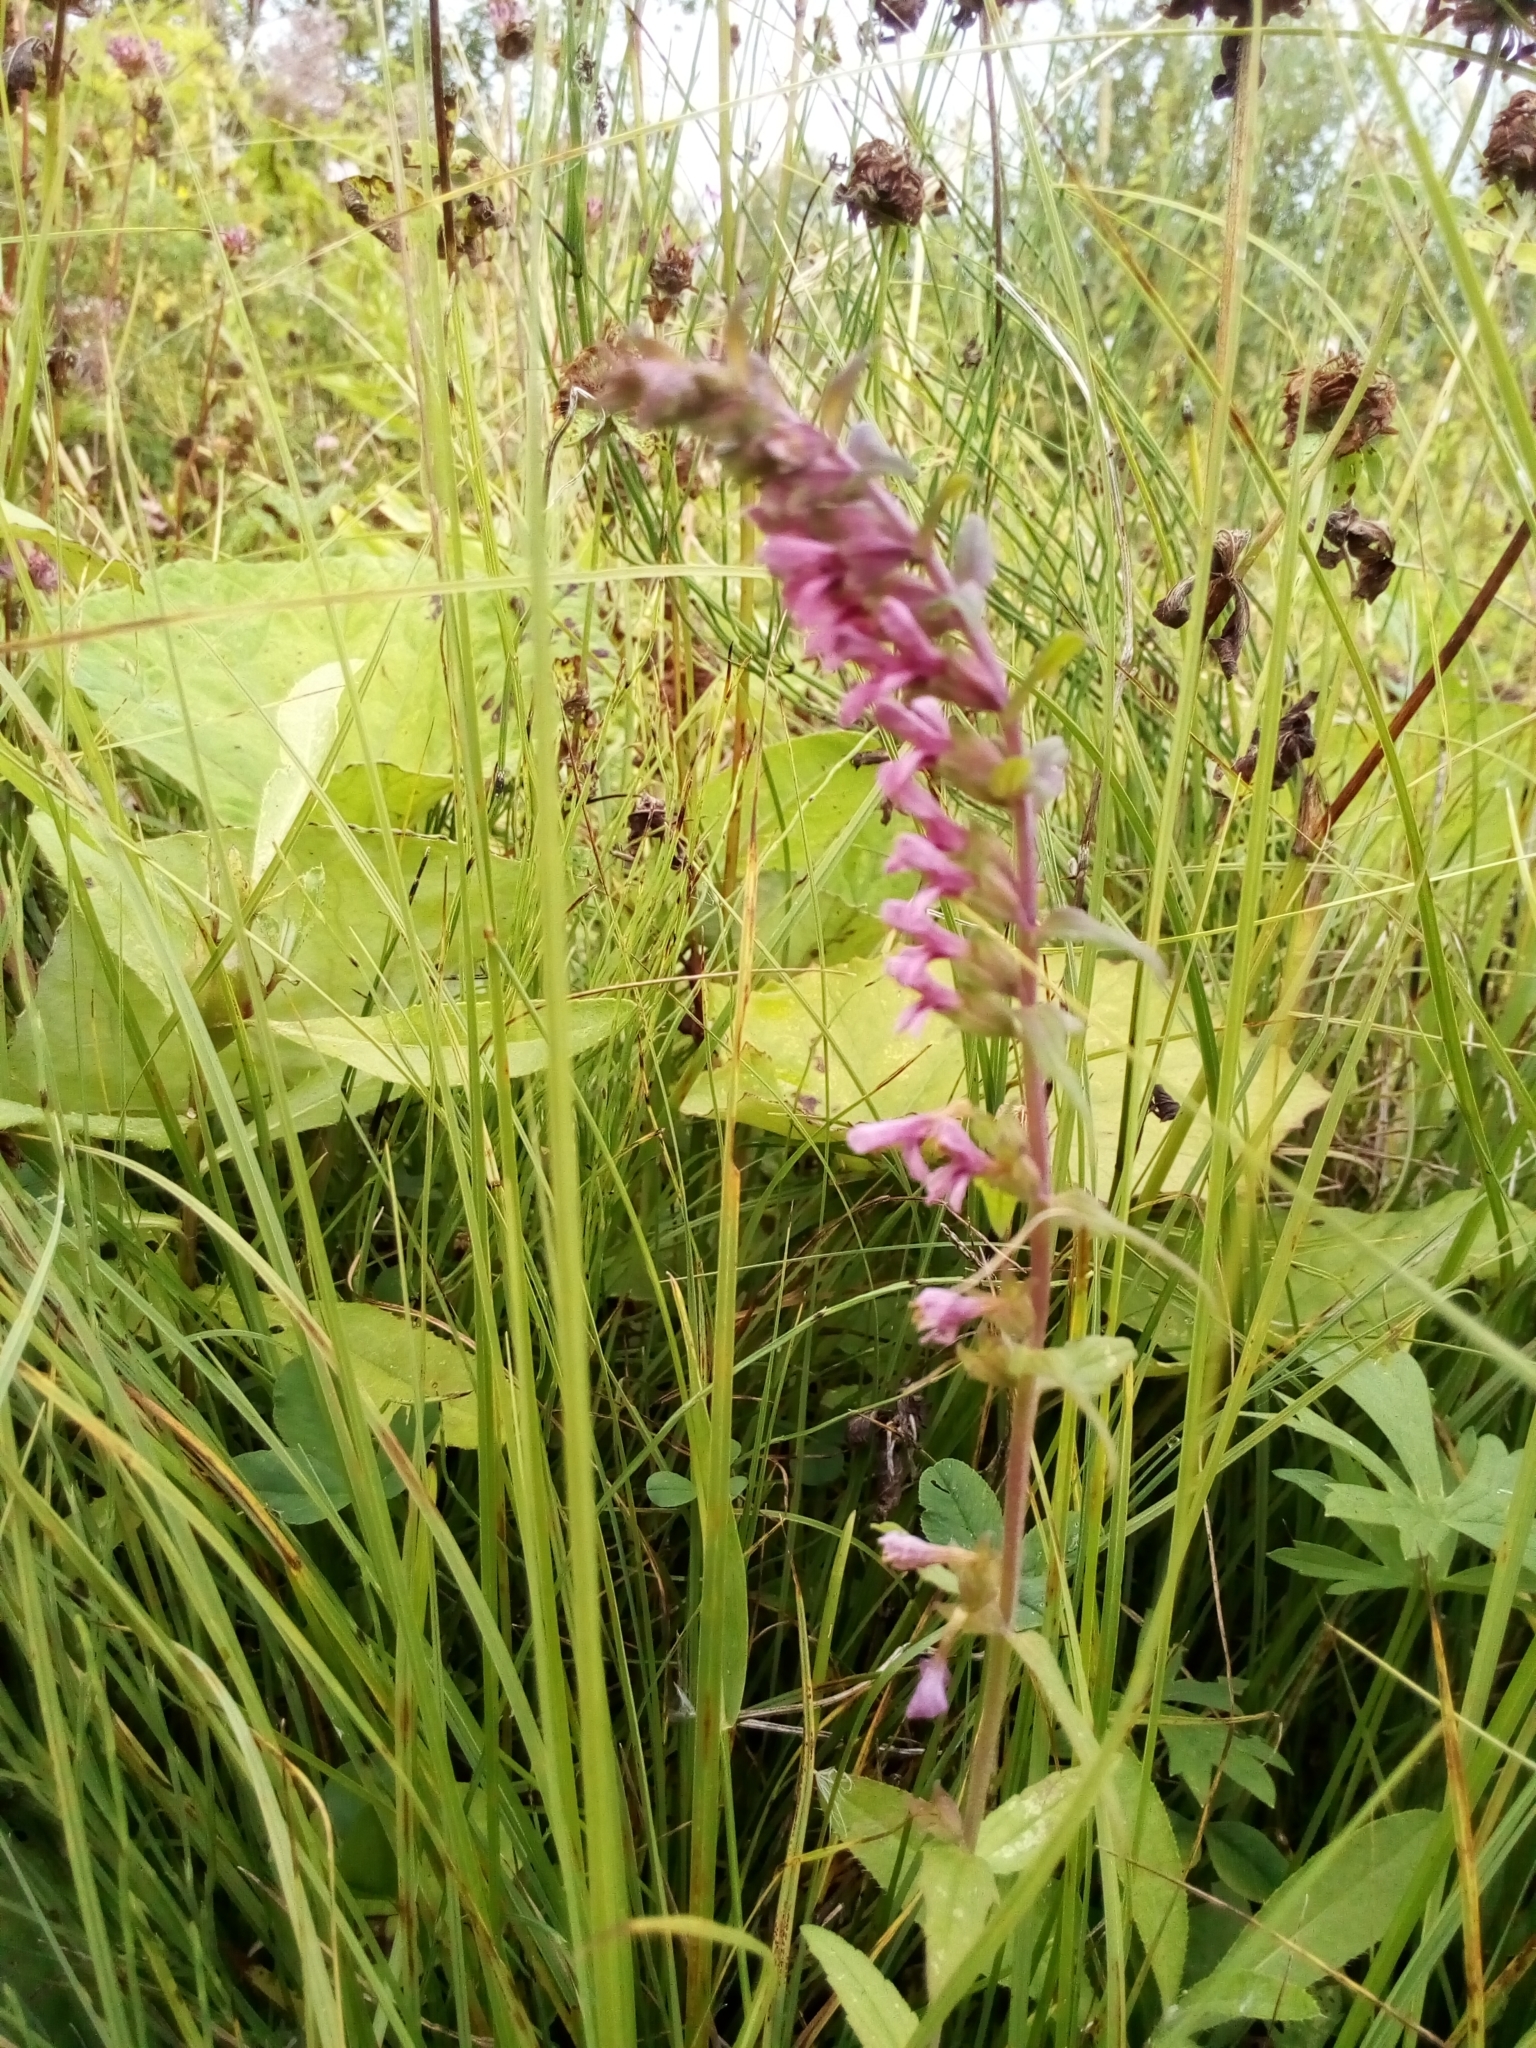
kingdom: Plantae
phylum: Tracheophyta
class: Magnoliopsida
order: Lamiales
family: Orobanchaceae
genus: Odontites
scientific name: Odontites vulgaris
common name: Broomrape
